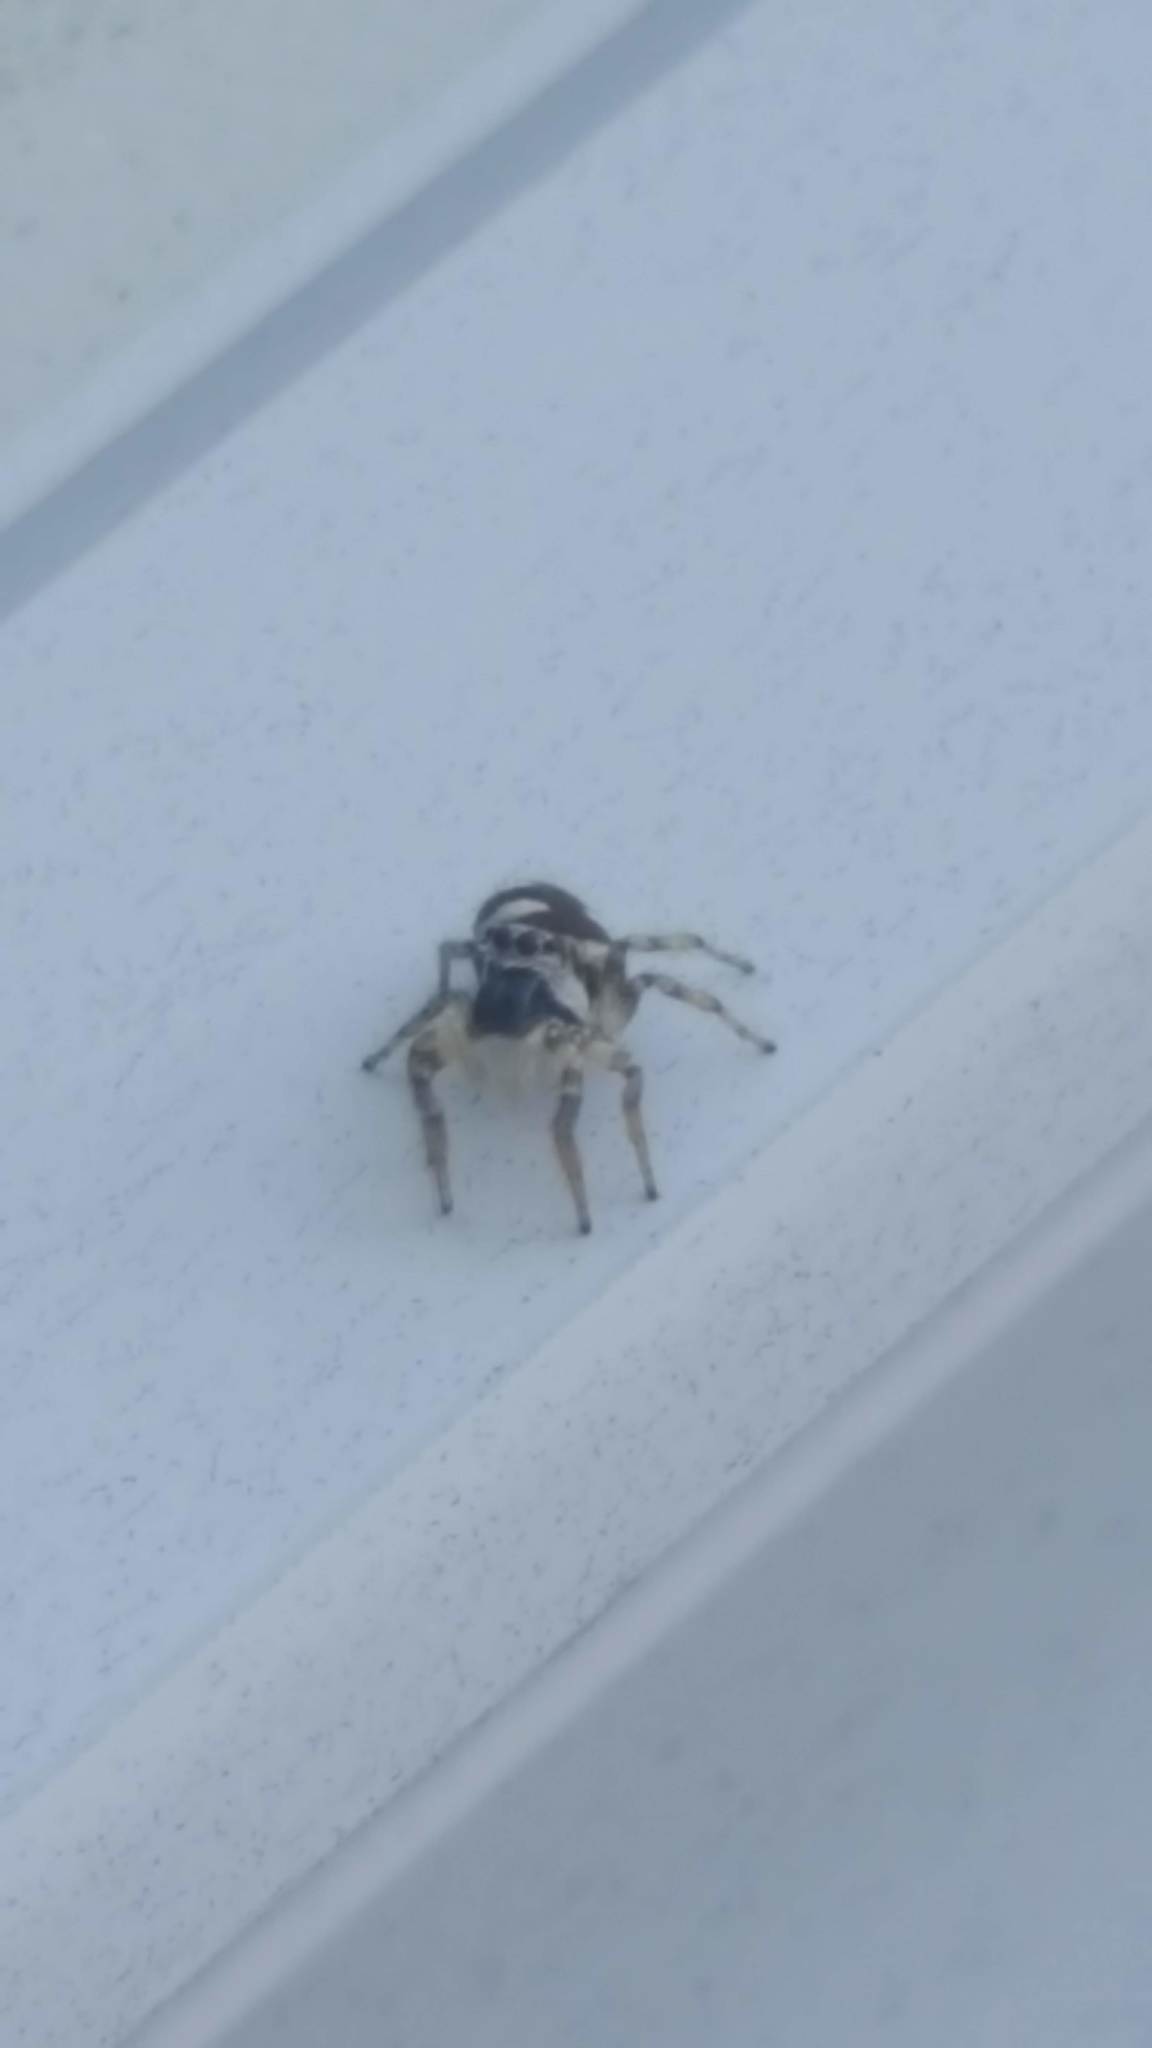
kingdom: Animalia
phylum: Arthropoda
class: Arachnida
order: Araneae
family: Salticidae
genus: Salticus
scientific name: Salticus scenicus
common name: Zebra jumper
